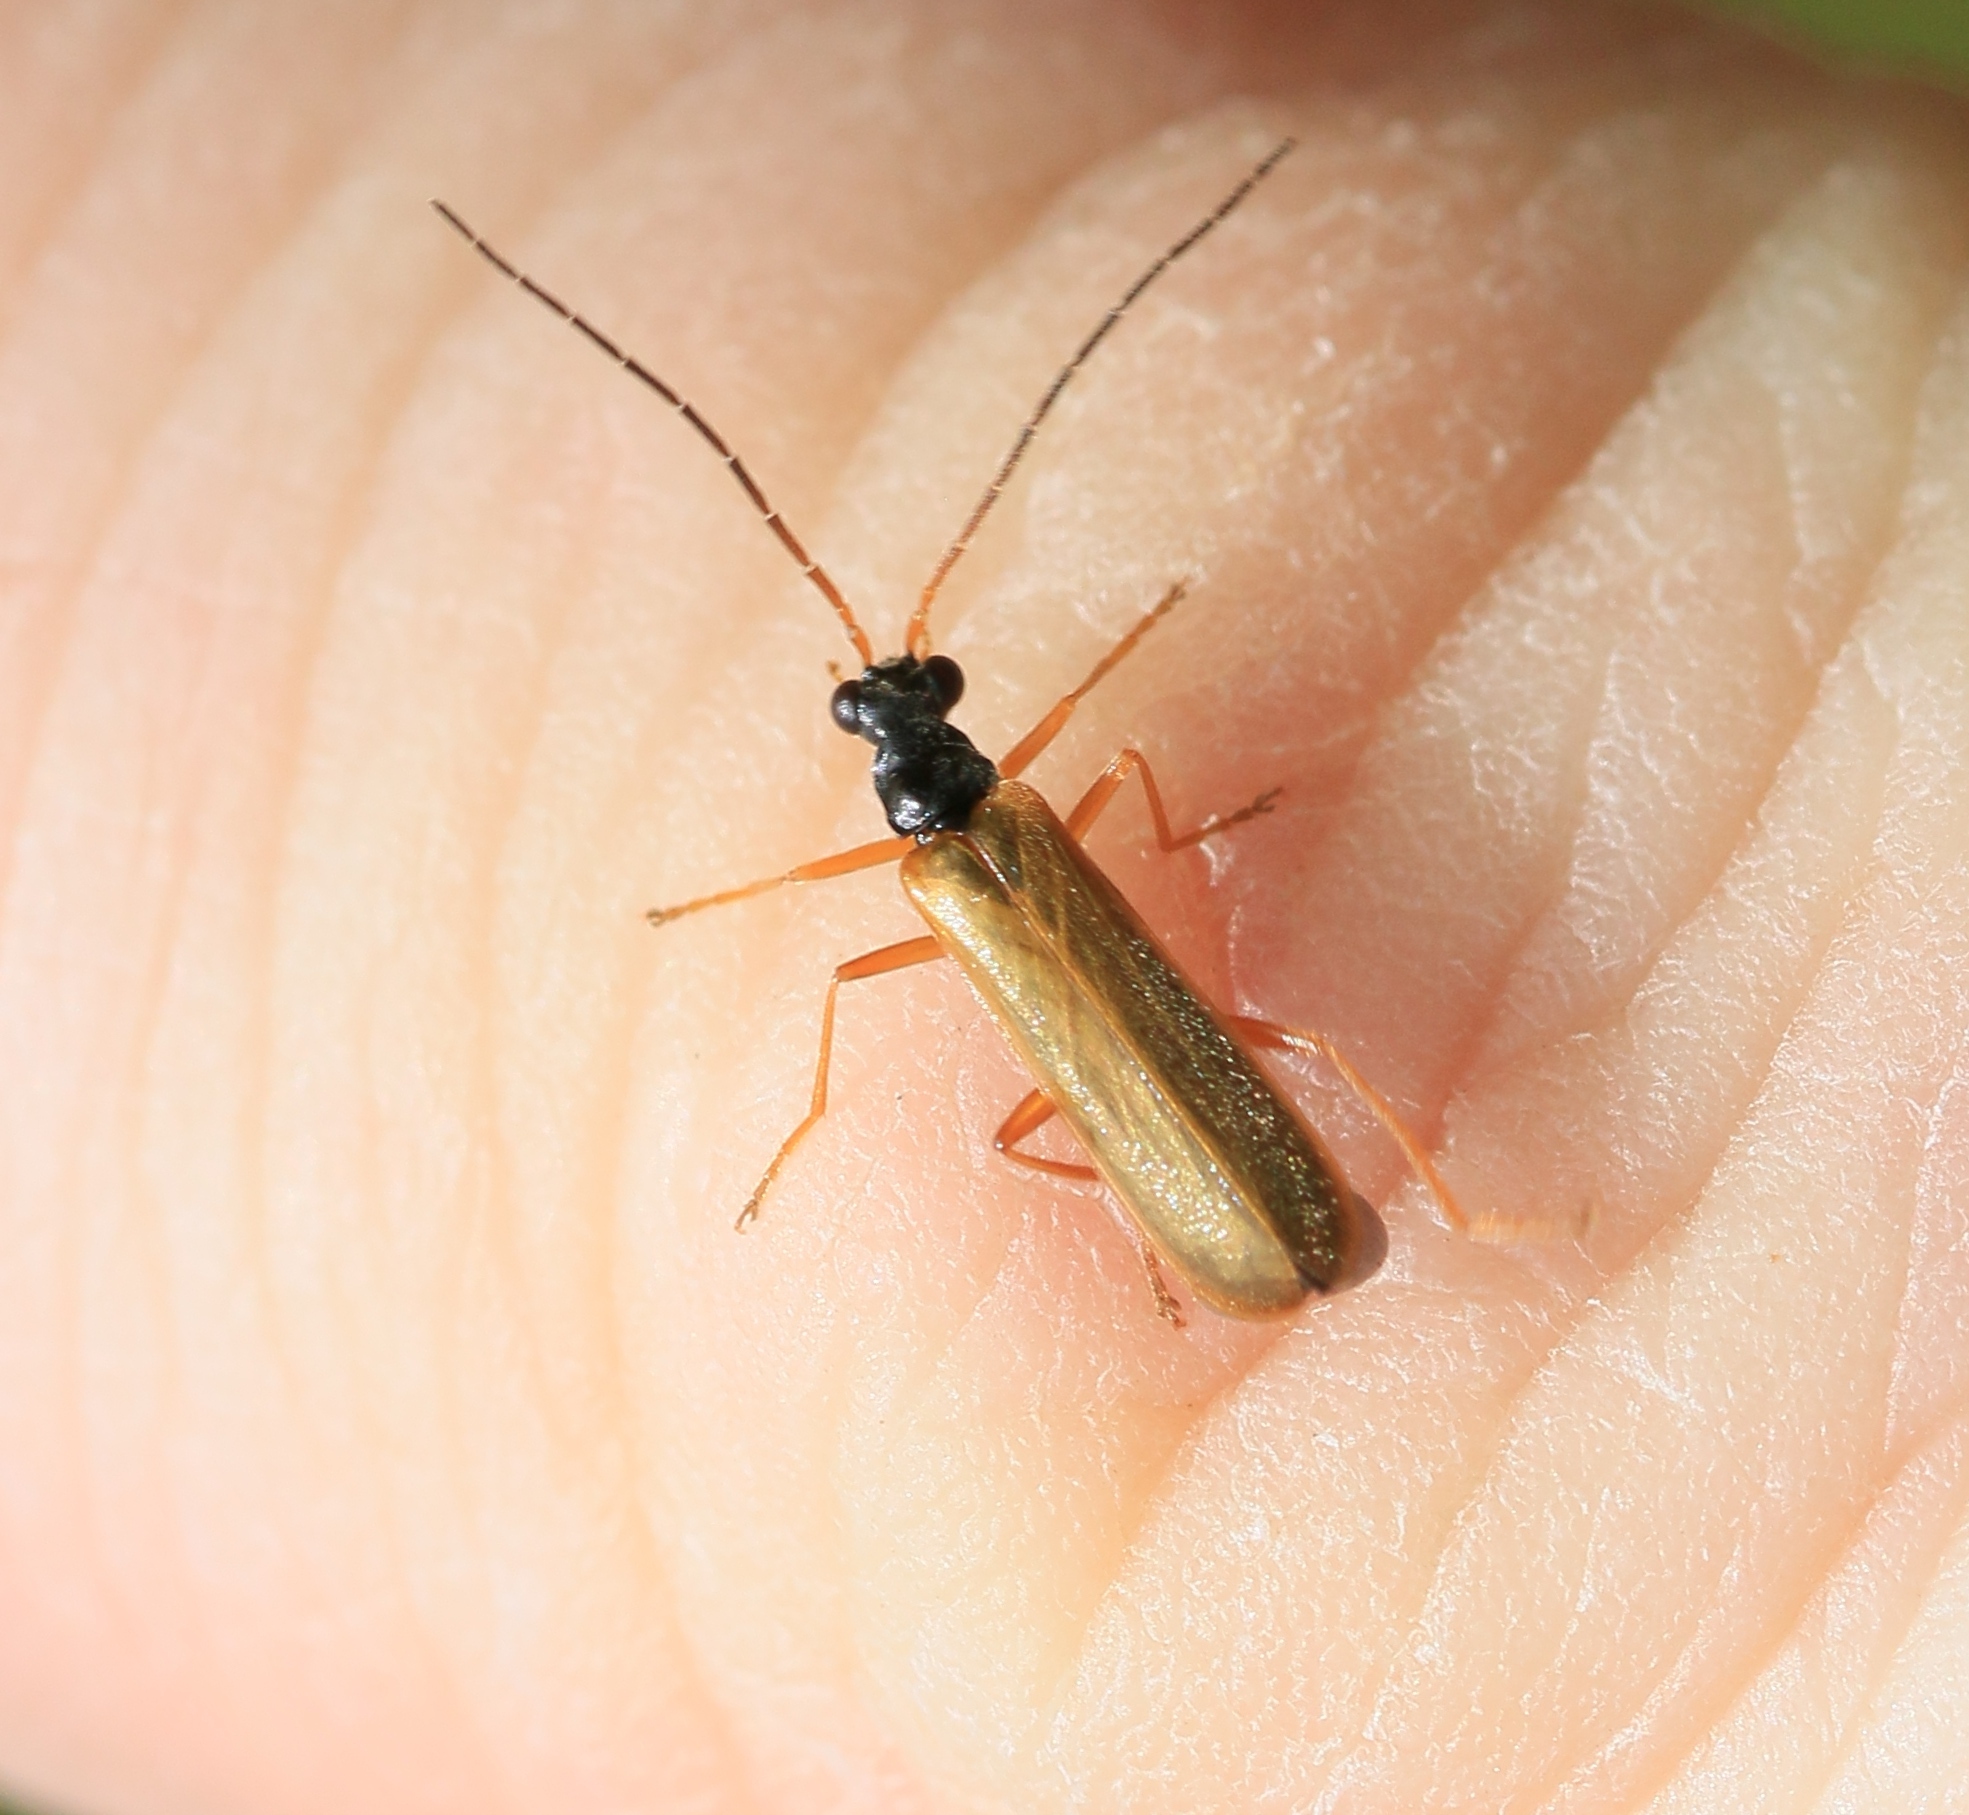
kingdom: Animalia
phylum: Arthropoda
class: Insecta
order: Coleoptera
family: Cantharidae
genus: Rhagonycha
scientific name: Rhagonycha lignosa
